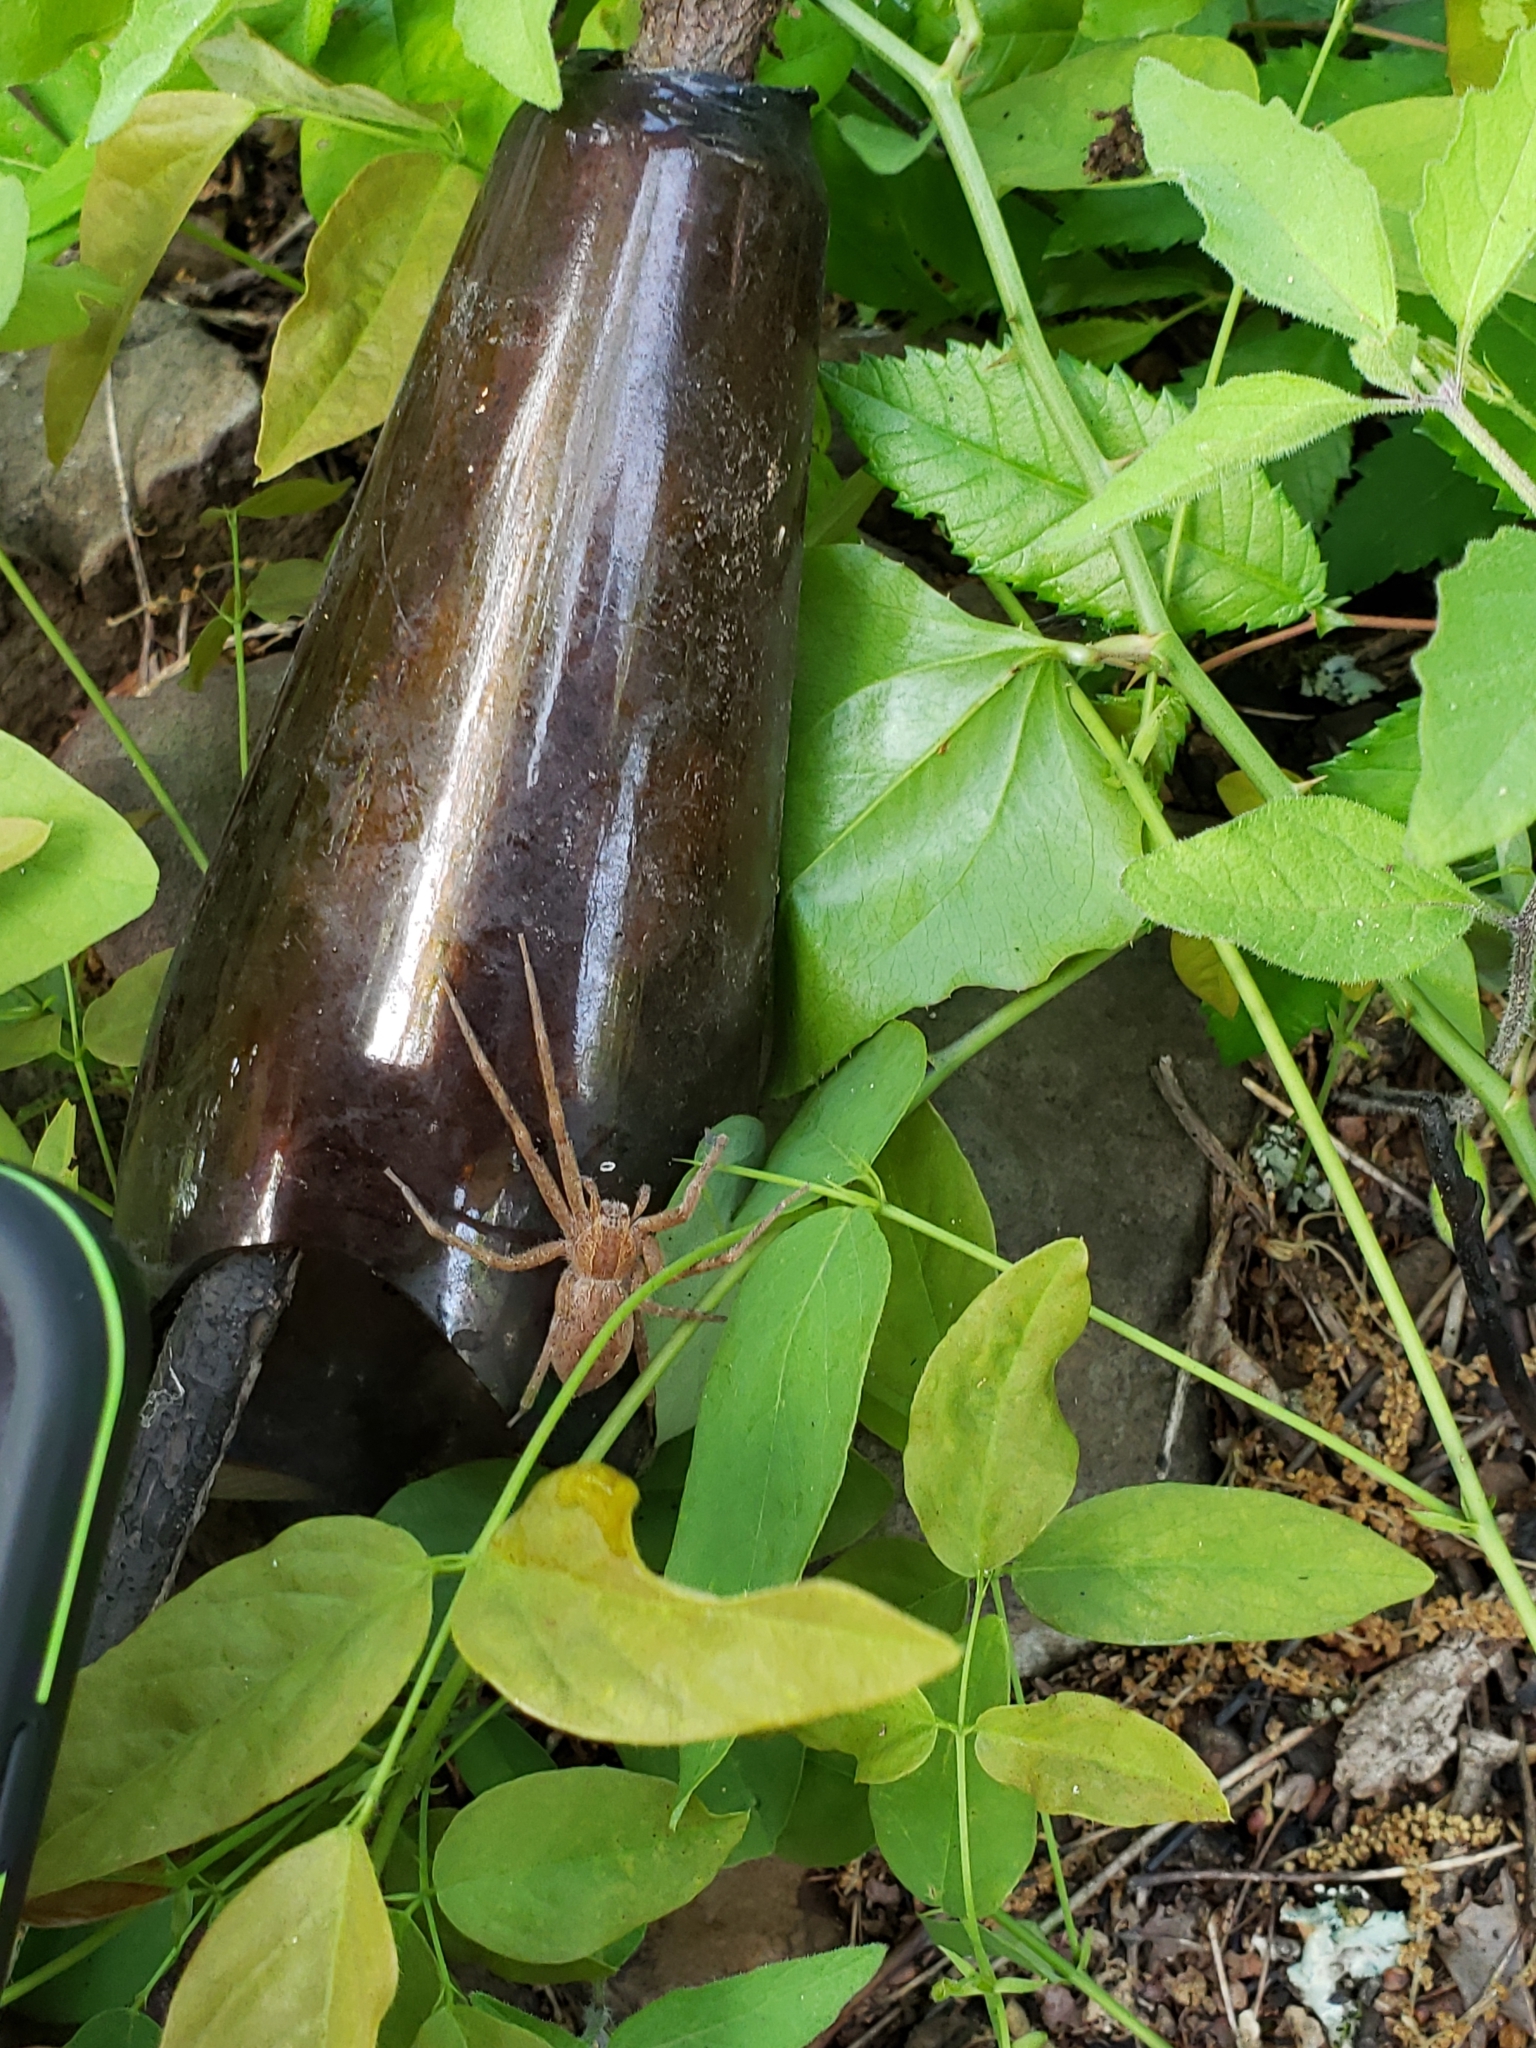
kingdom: Animalia
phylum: Arthropoda
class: Arachnida
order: Araneae
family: Pisauridae
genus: Pisaurina
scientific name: Pisaurina mira
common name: American nursery web spider
